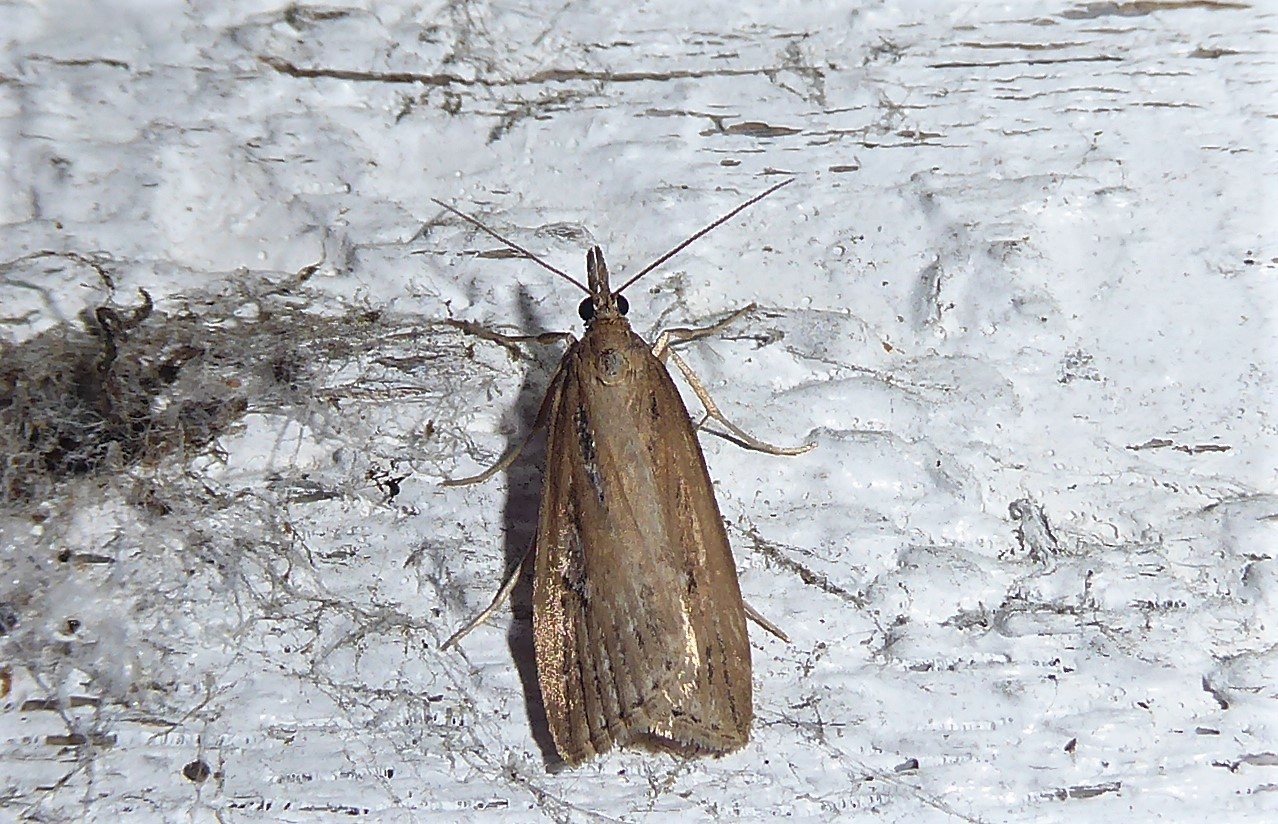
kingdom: Animalia
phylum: Arthropoda
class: Insecta
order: Lepidoptera
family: Crambidae
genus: Eudonia
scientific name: Eudonia octophora
